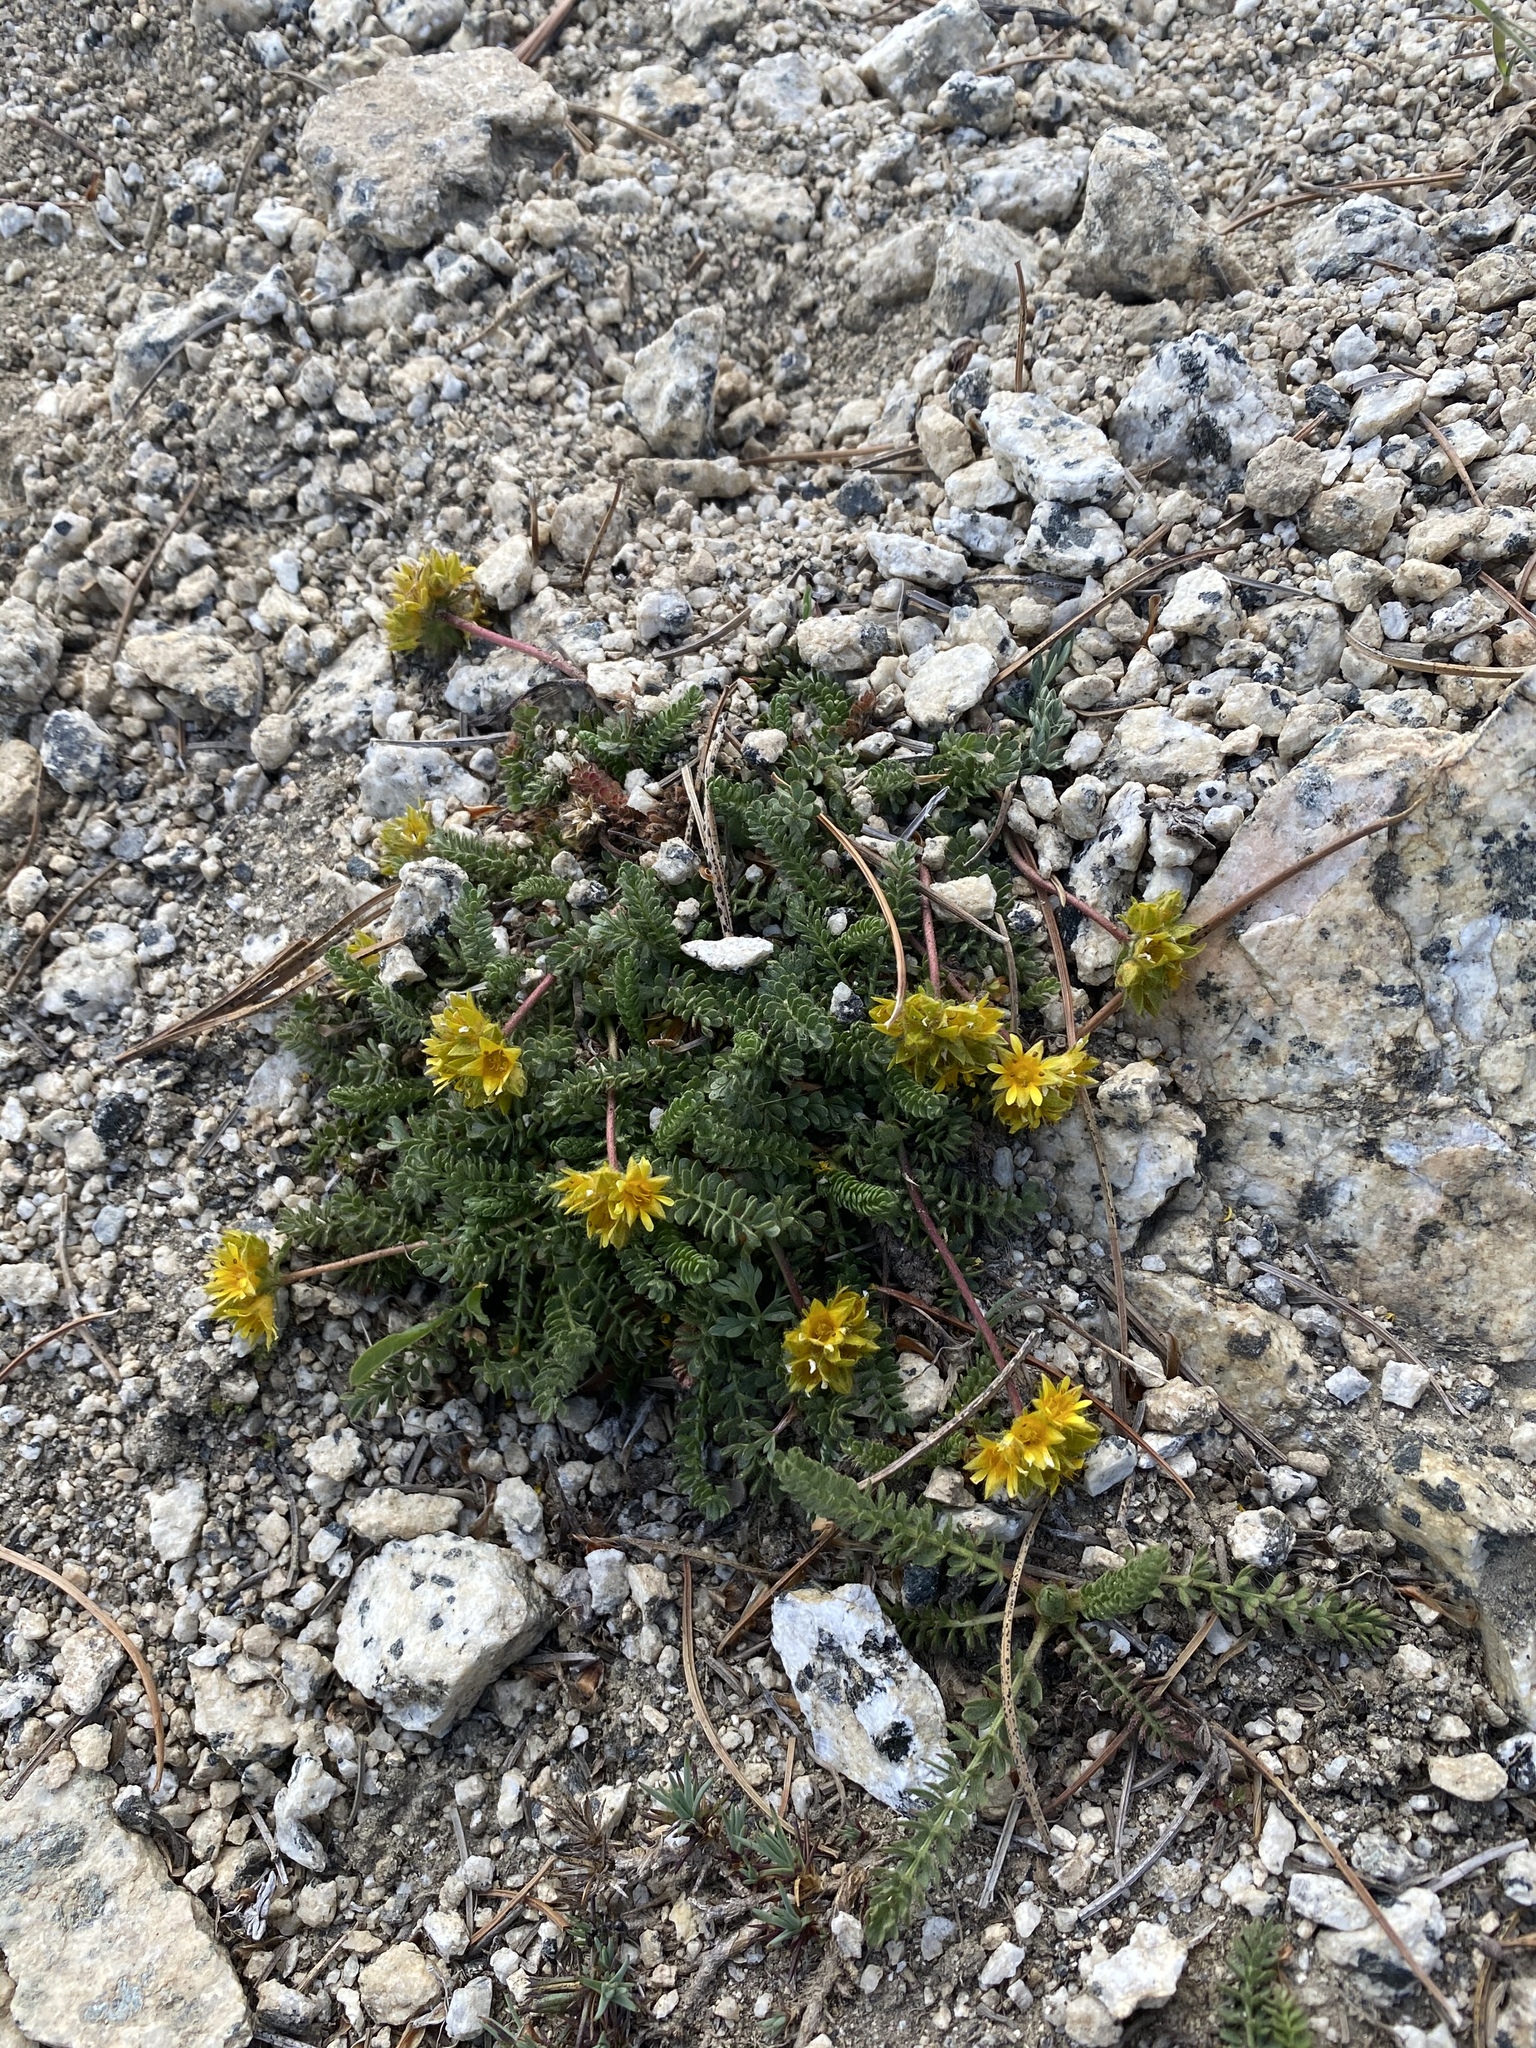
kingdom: Plantae
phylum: Tracheophyta
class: Magnoliopsida
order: Rosales
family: Rosaceae
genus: Potentilla
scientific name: Potentilla gordonii
